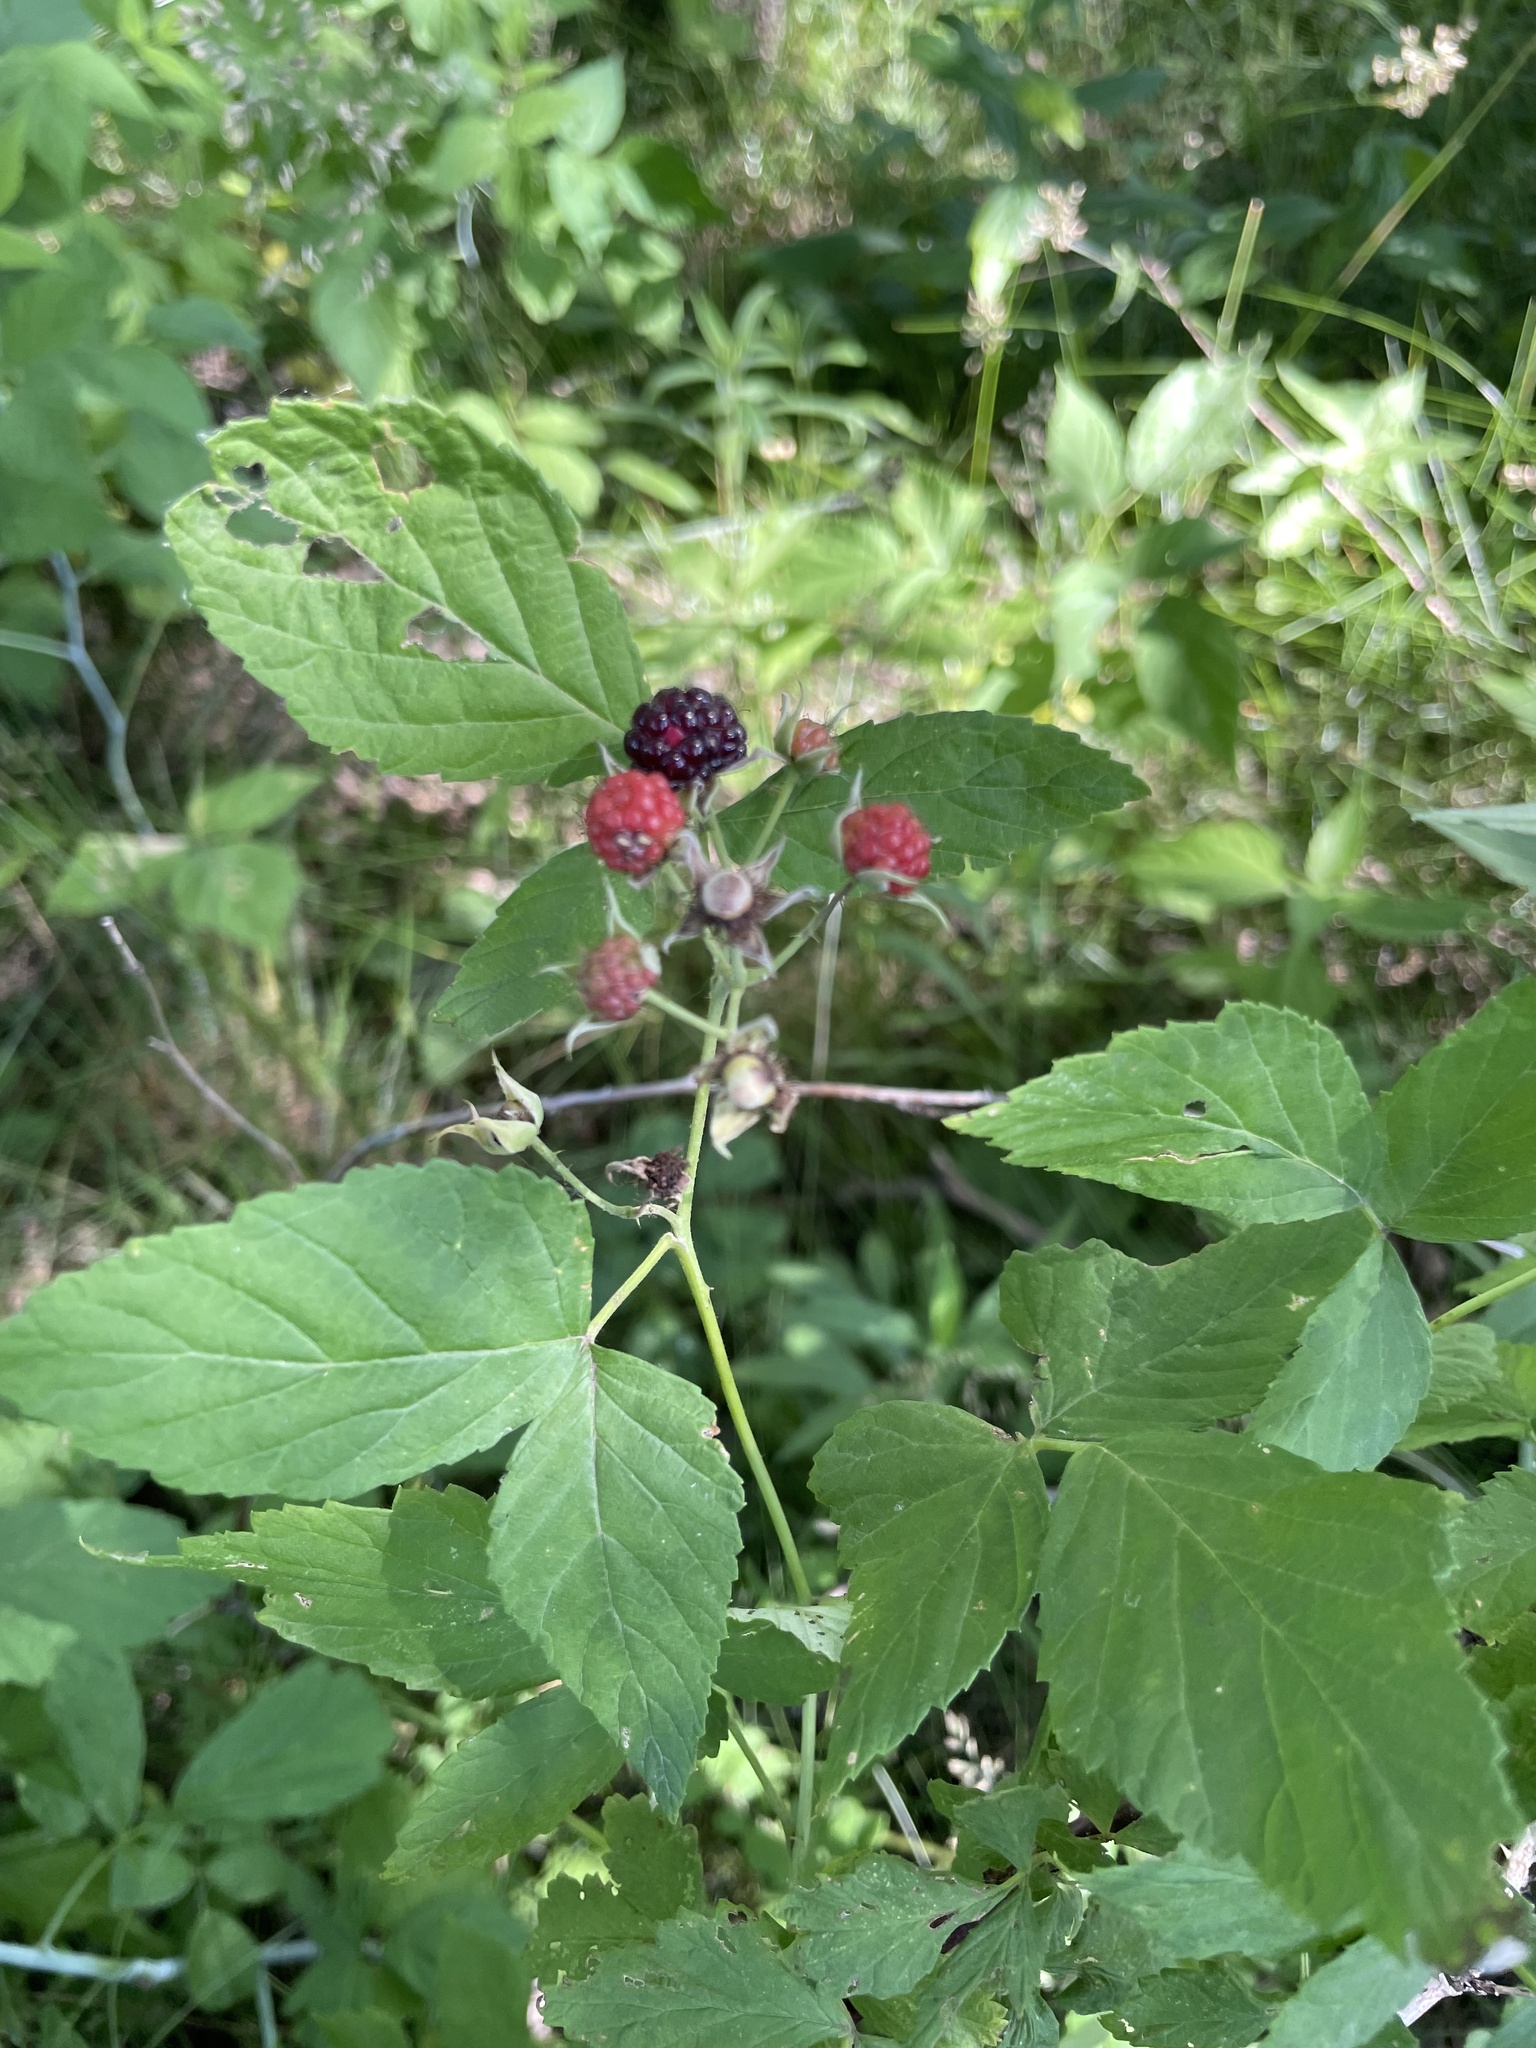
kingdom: Plantae
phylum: Tracheophyta
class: Magnoliopsida
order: Rosales
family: Rosaceae
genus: Rubus
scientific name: Rubus occidentalis
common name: Black raspberry
